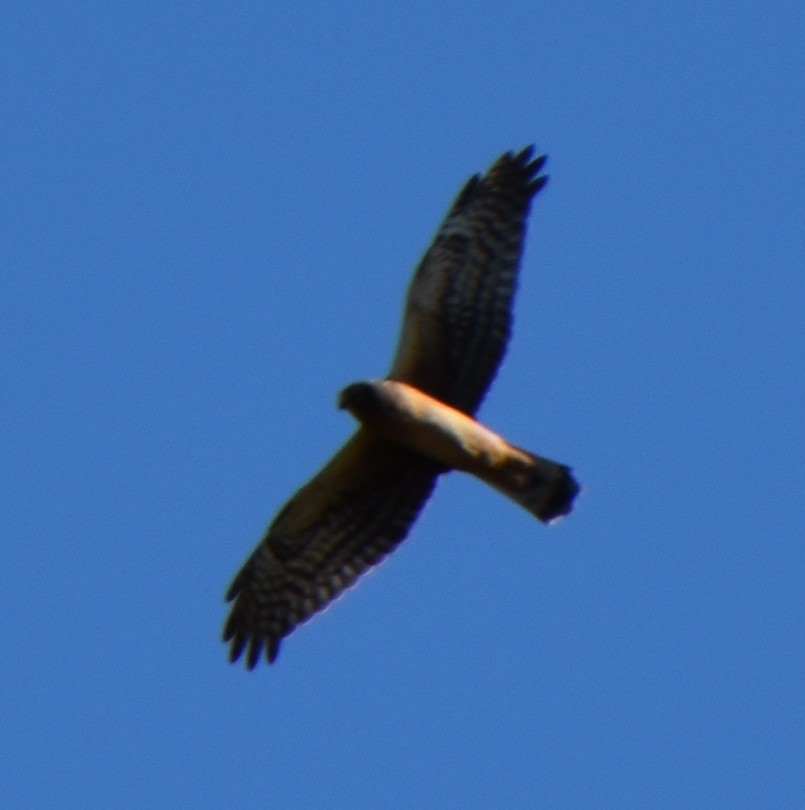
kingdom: Animalia
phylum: Chordata
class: Aves
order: Accipitriformes
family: Accipitridae
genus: Accipiter
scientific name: Accipiter striatus
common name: Sharp-shinned hawk
